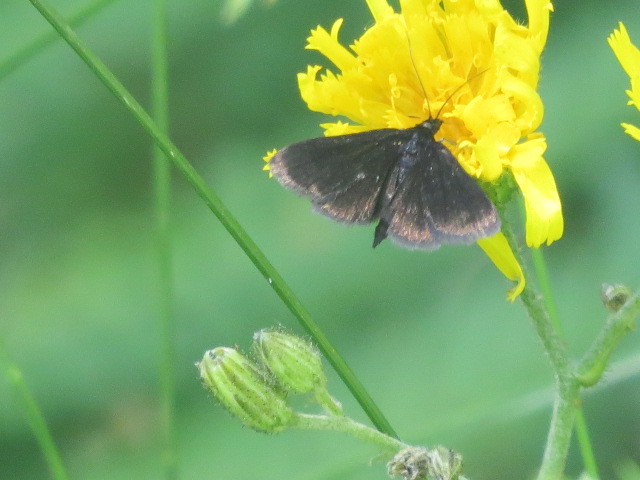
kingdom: Animalia
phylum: Arthropoda
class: Insecta
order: Lepidoptera
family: Crambidae
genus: Pyrausta
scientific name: Pyrausta coracinalis
